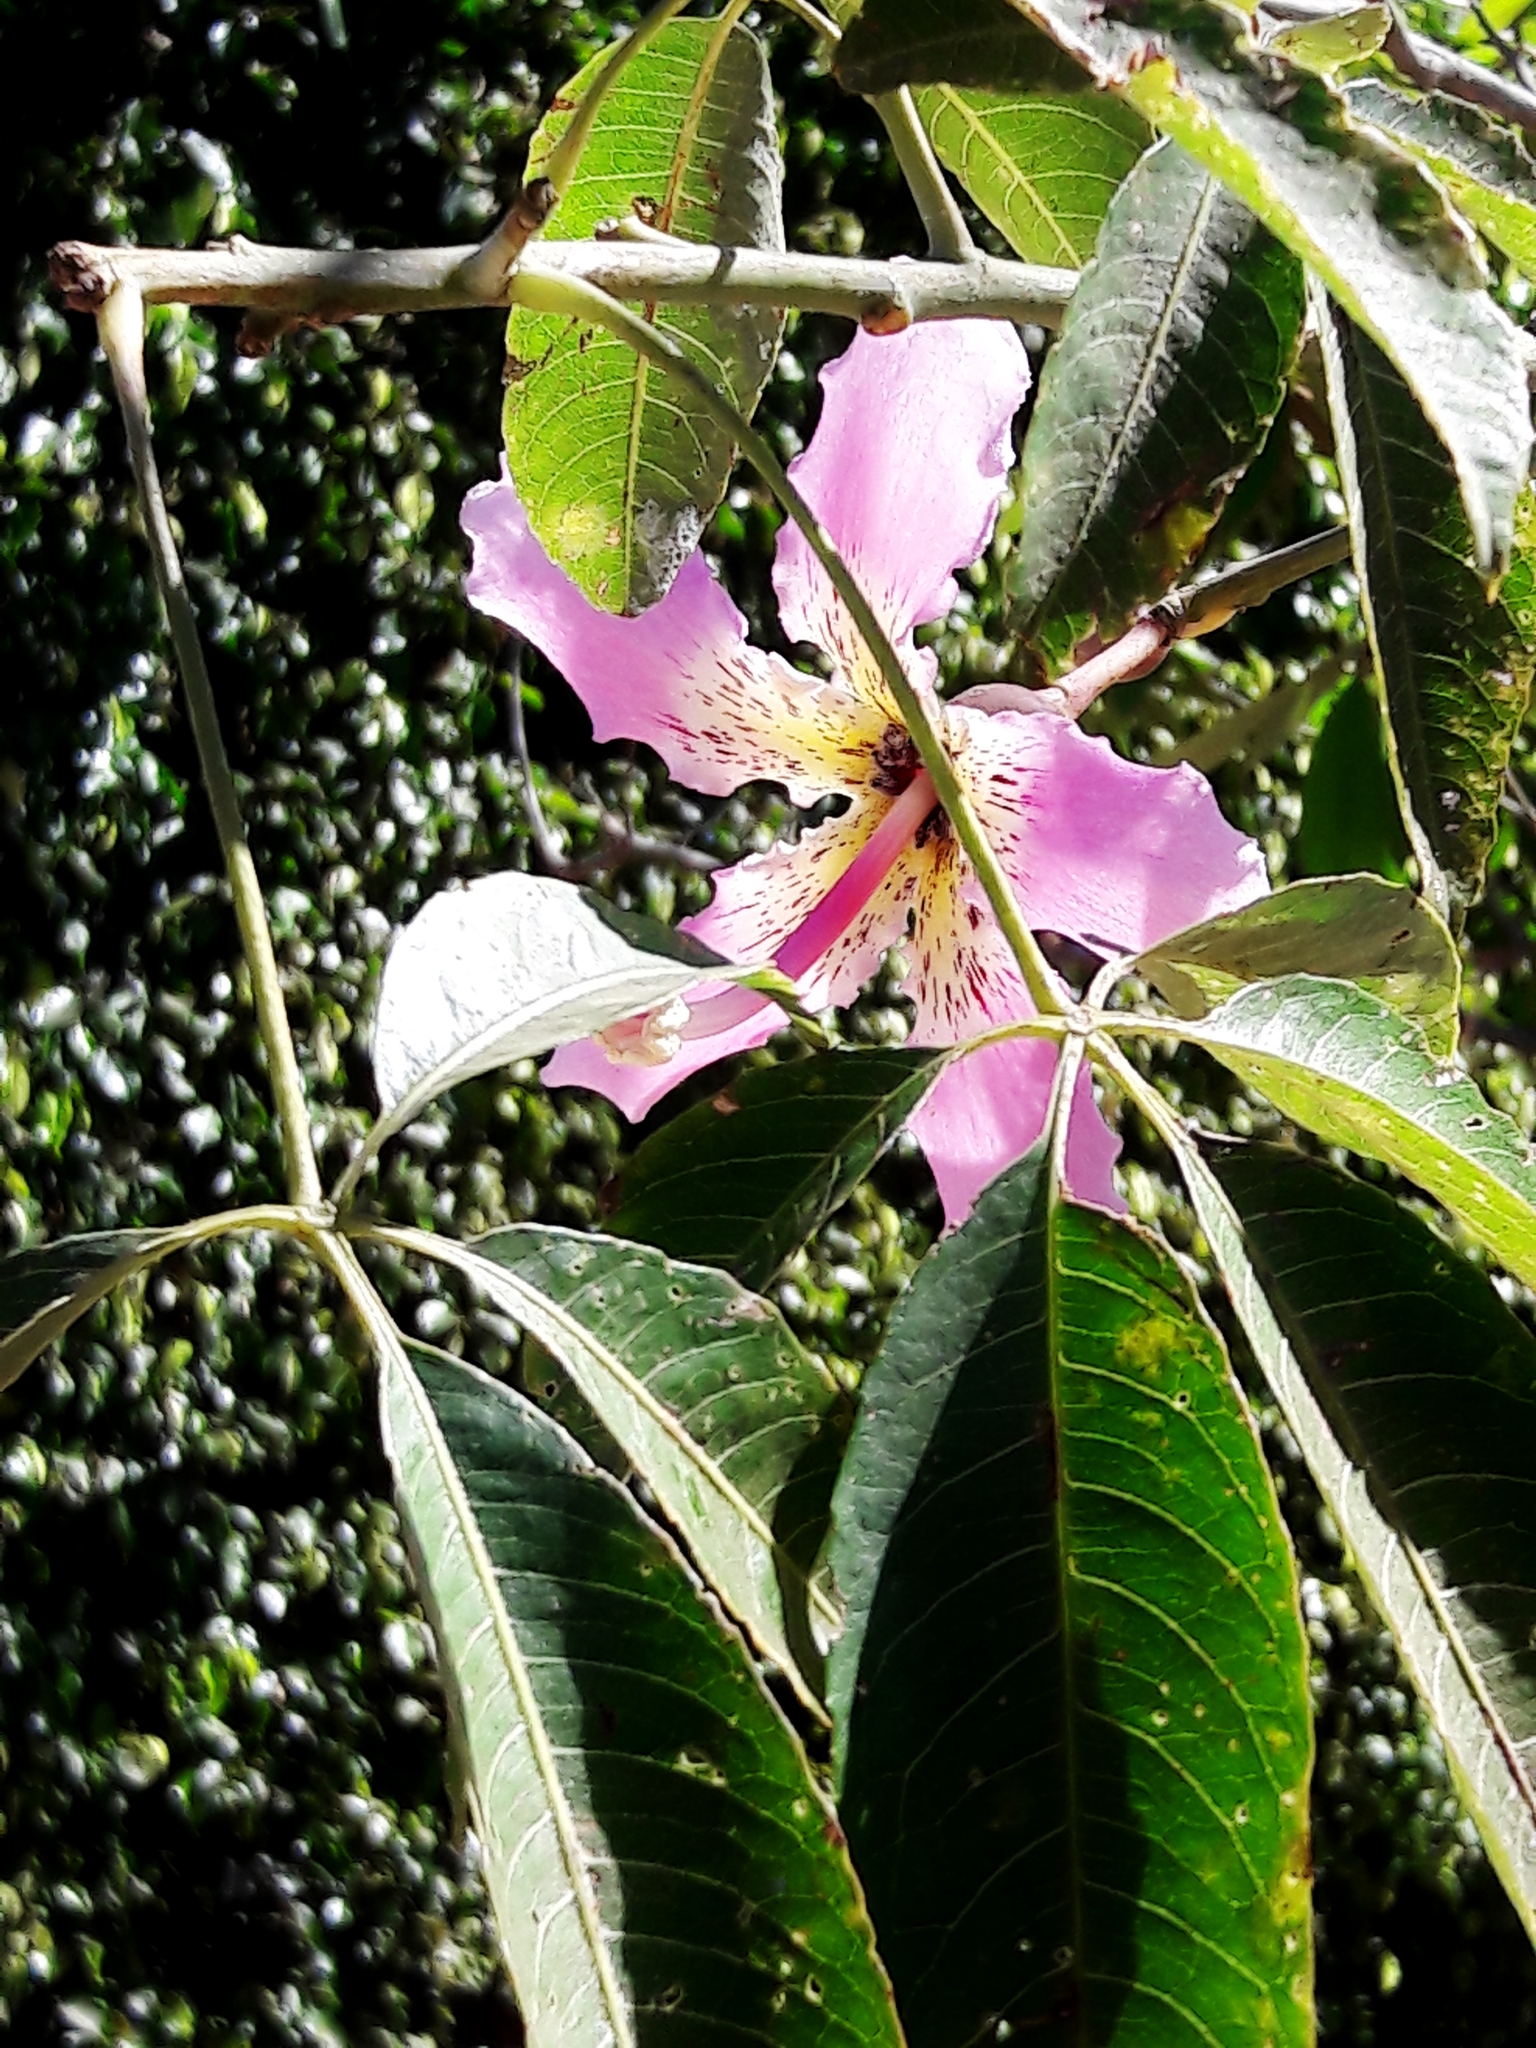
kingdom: Plantae
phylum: Tracheophyta
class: Magnoliopsida
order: Malvales
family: Malvaceae
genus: Ceiba
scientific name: Ceiba speciosa
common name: Silk-floss tree
